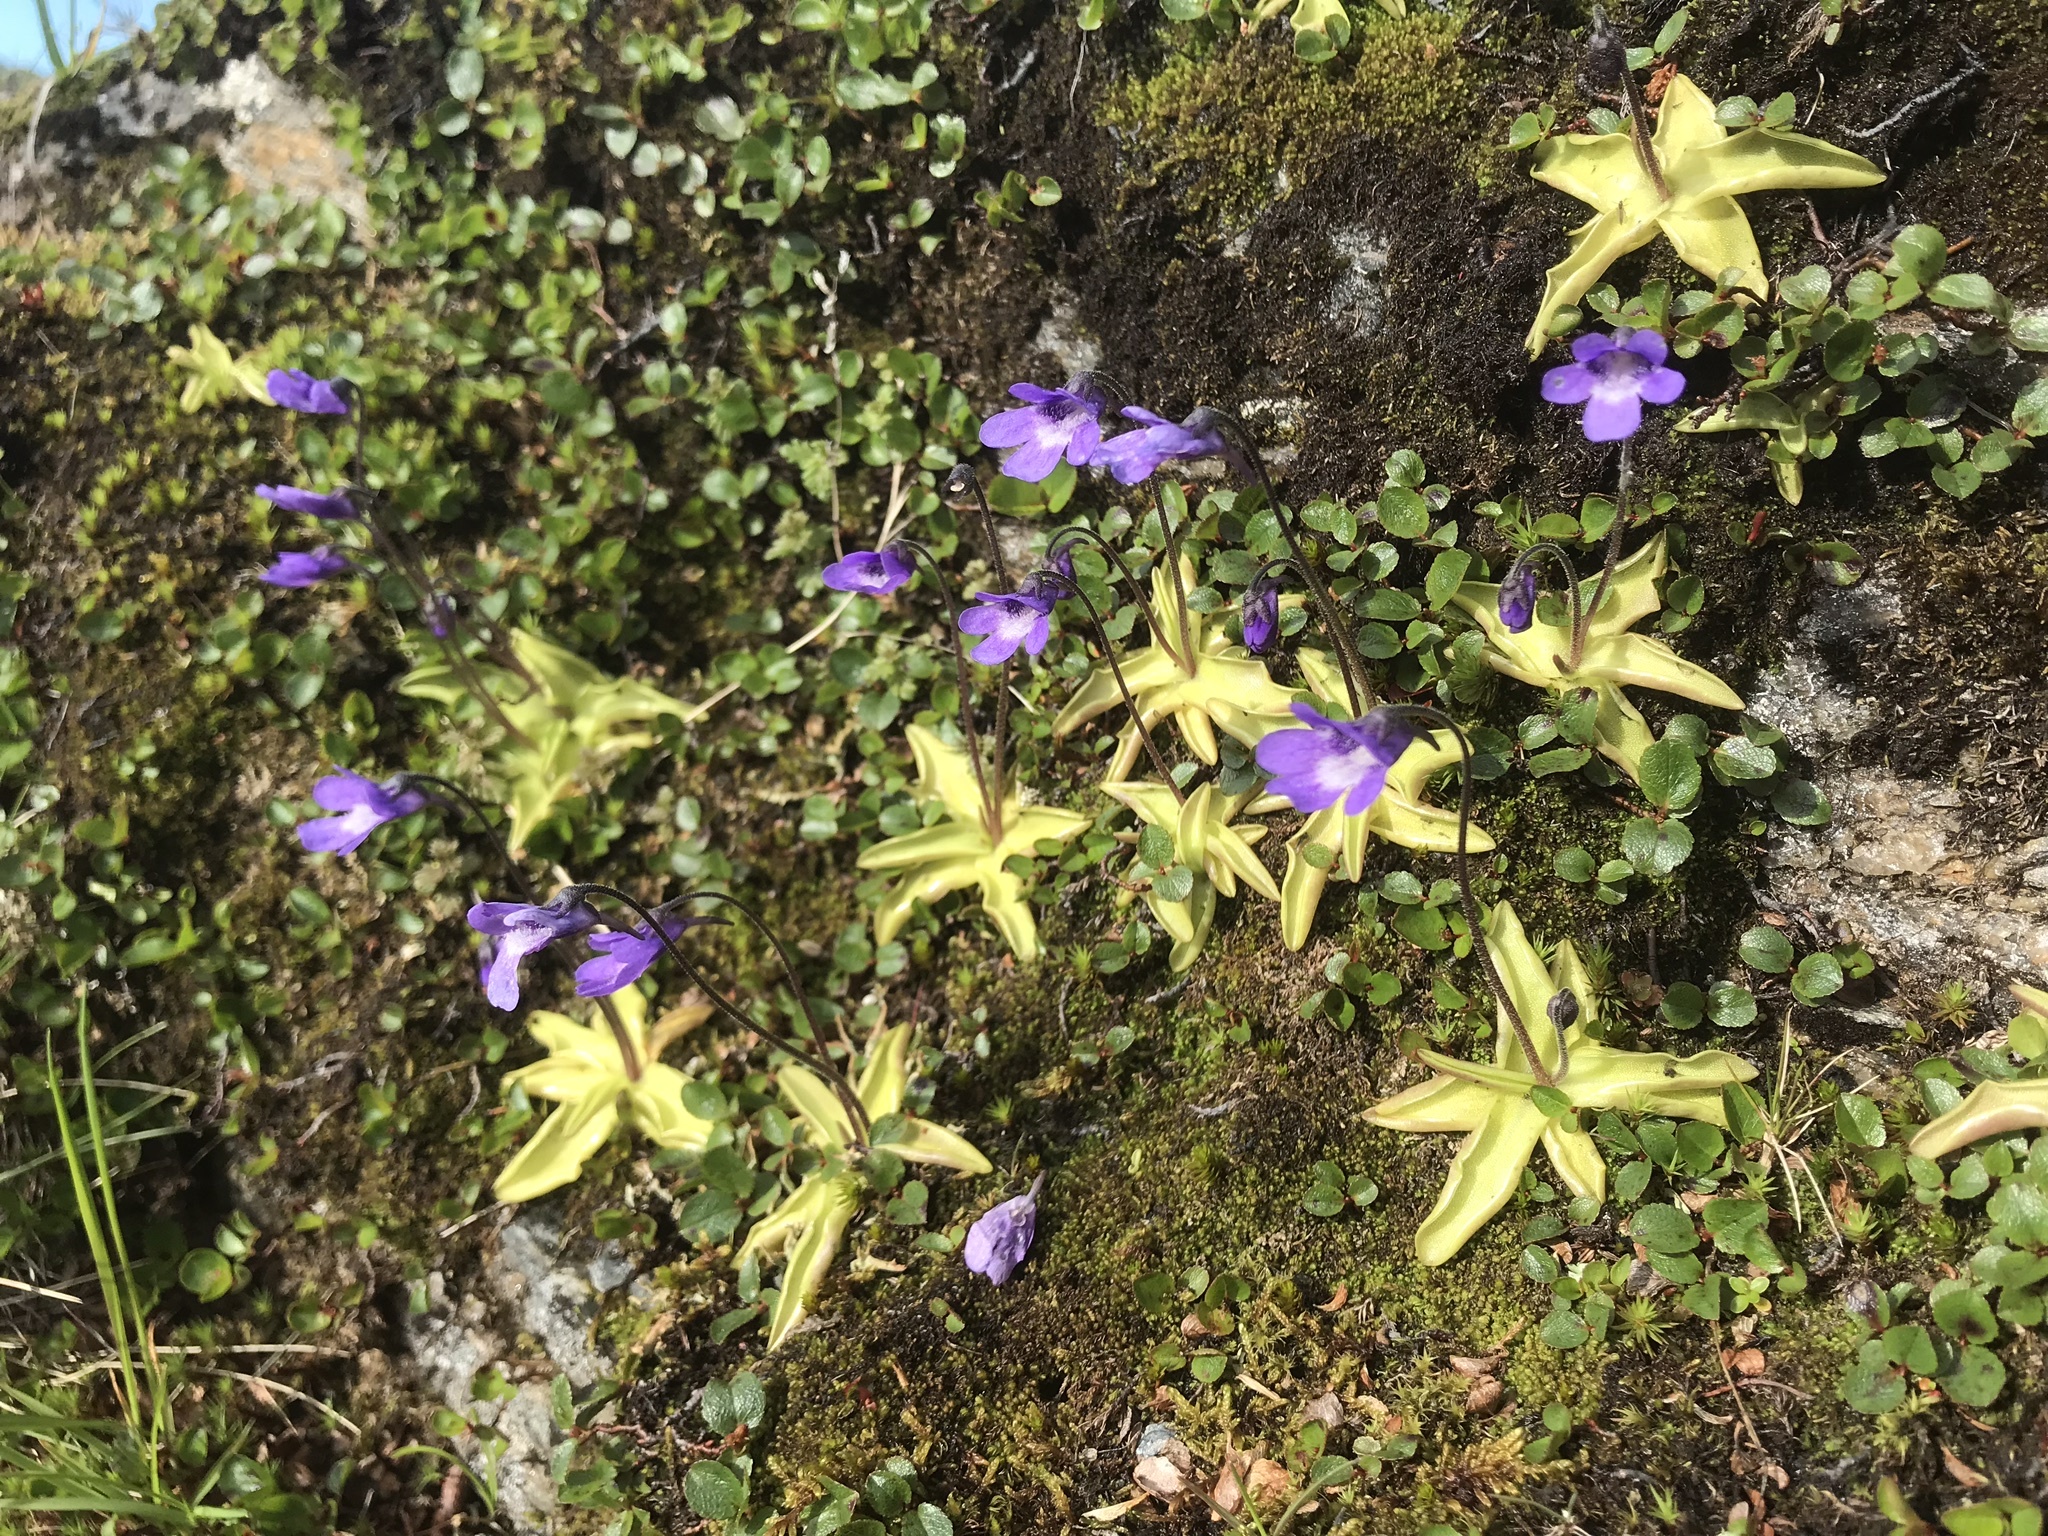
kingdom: Plantae
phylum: Tracheophyta
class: Magnoliopsida
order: Lamiales
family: Lentibulariaceae
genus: Pinguicula
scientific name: Pinguicula vulgaris
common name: Common butterwort
